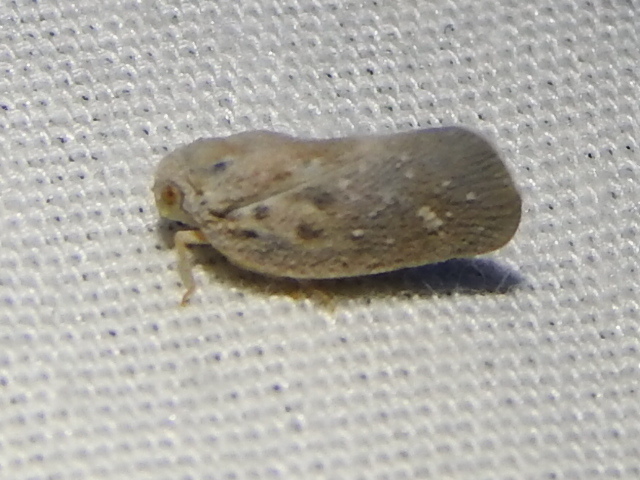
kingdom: Animalia
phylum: Arthropoda
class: Insecta
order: Hemiptera
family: Flatidae
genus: Metcalfa
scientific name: Metcalfa pruinosa
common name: Citrus flatid planthopper
